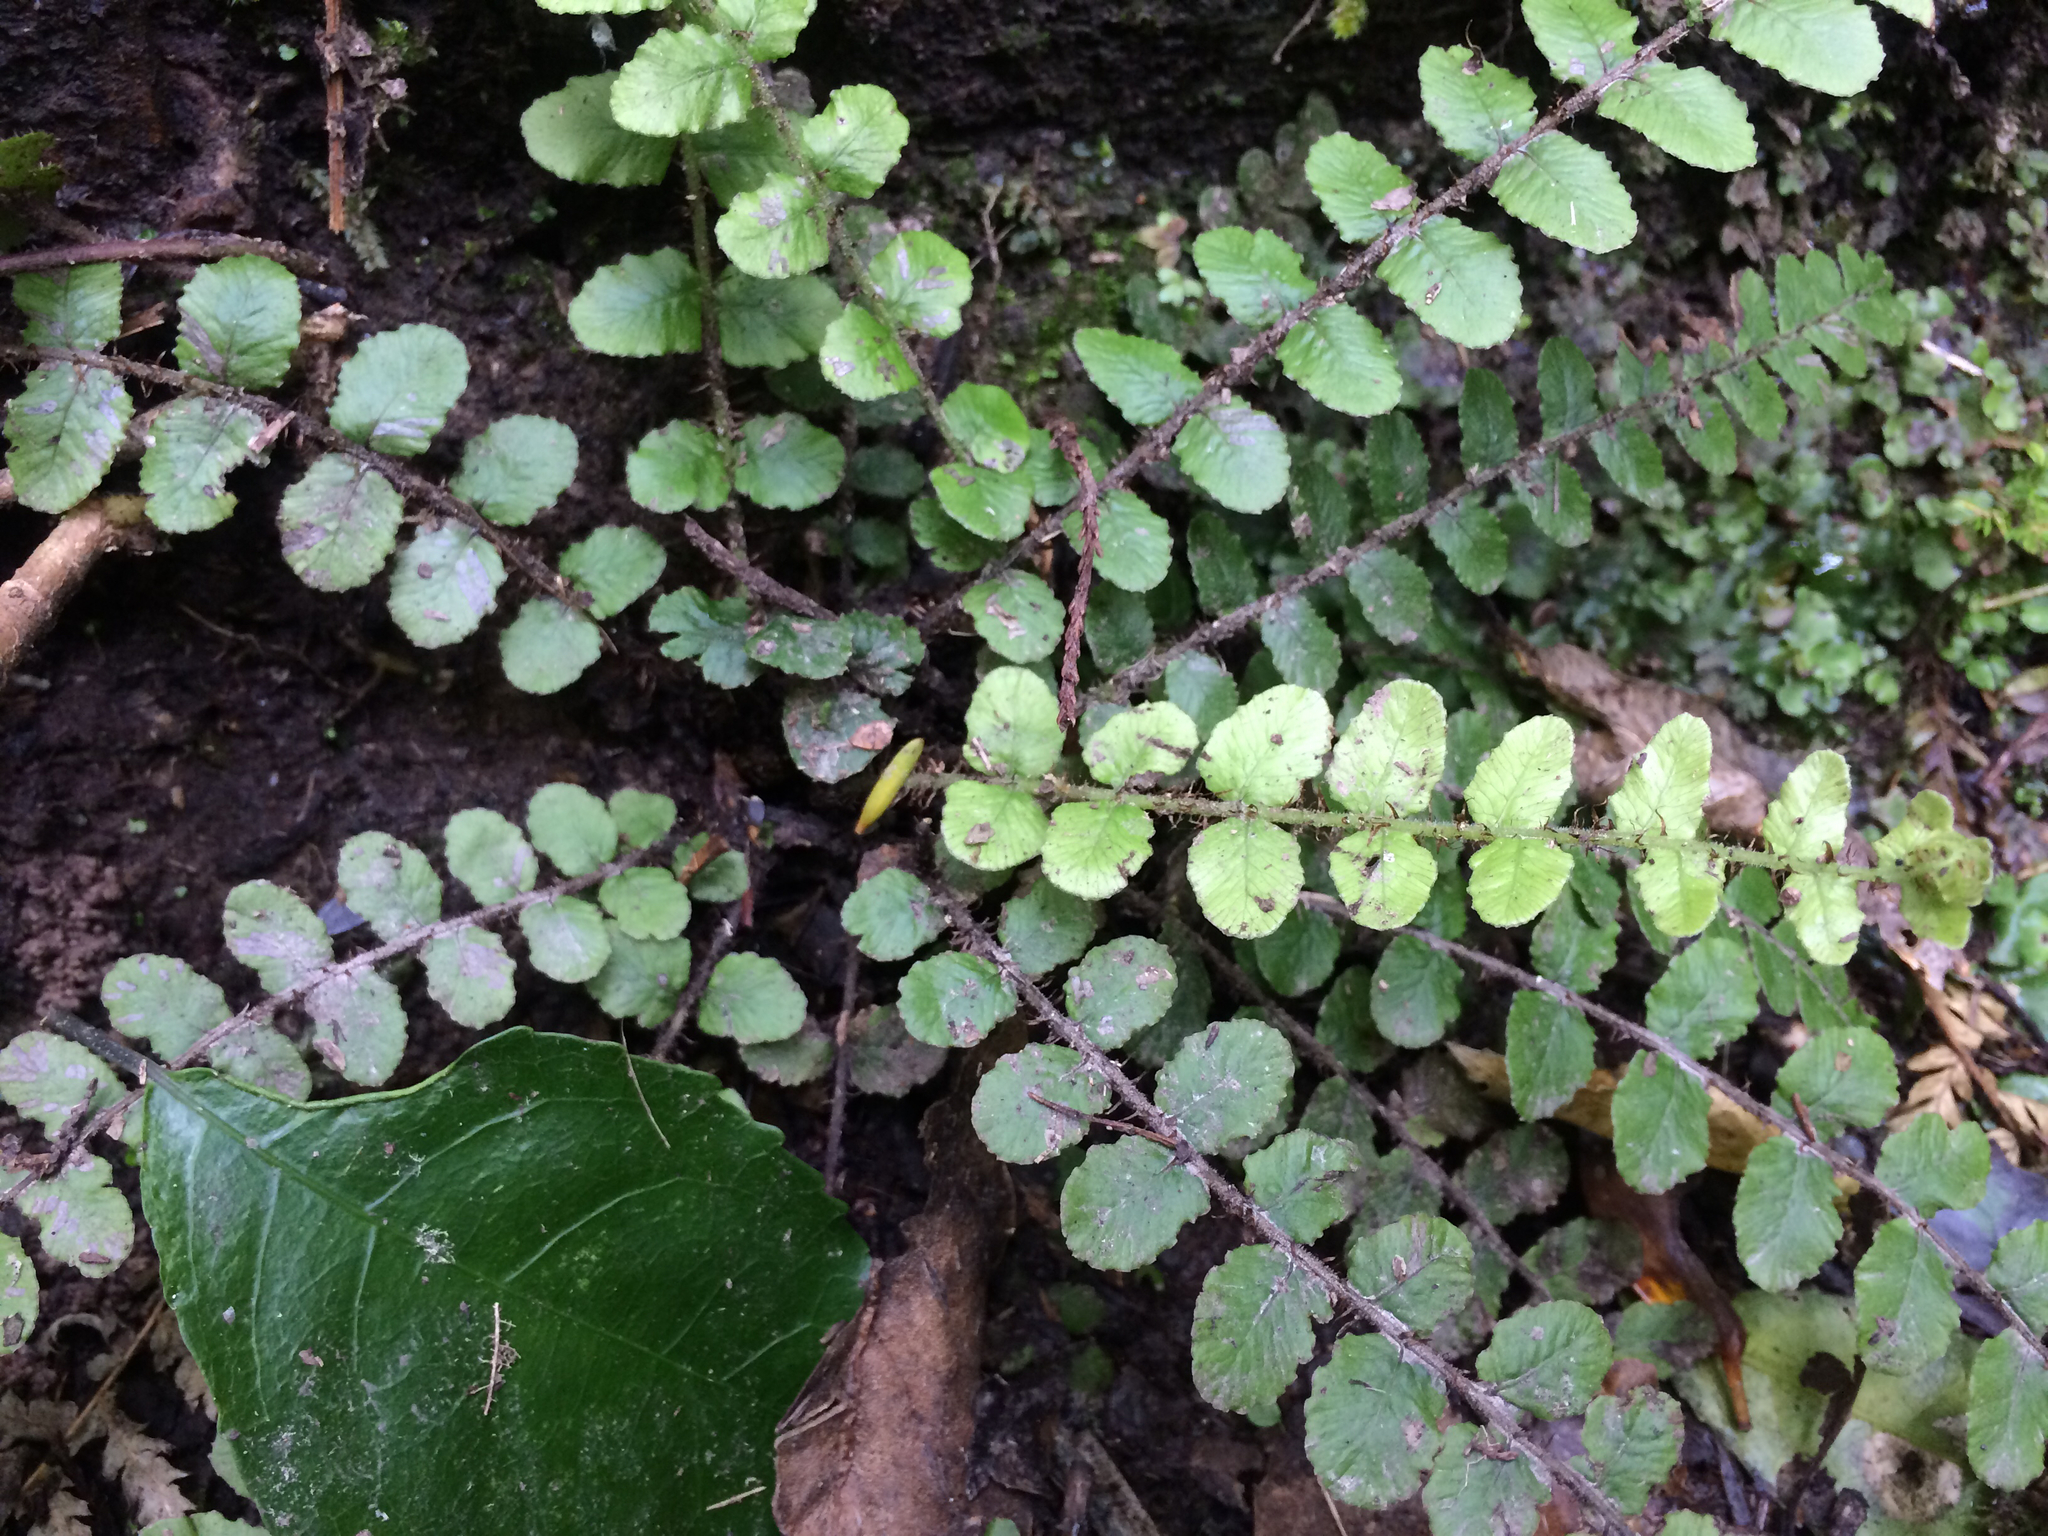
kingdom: Plantae
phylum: Tracheophyta
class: Polypodiopsida
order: Polypodiales
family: Blechnaceae
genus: Cranfillia
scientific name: Cranfillia fluviatilis
